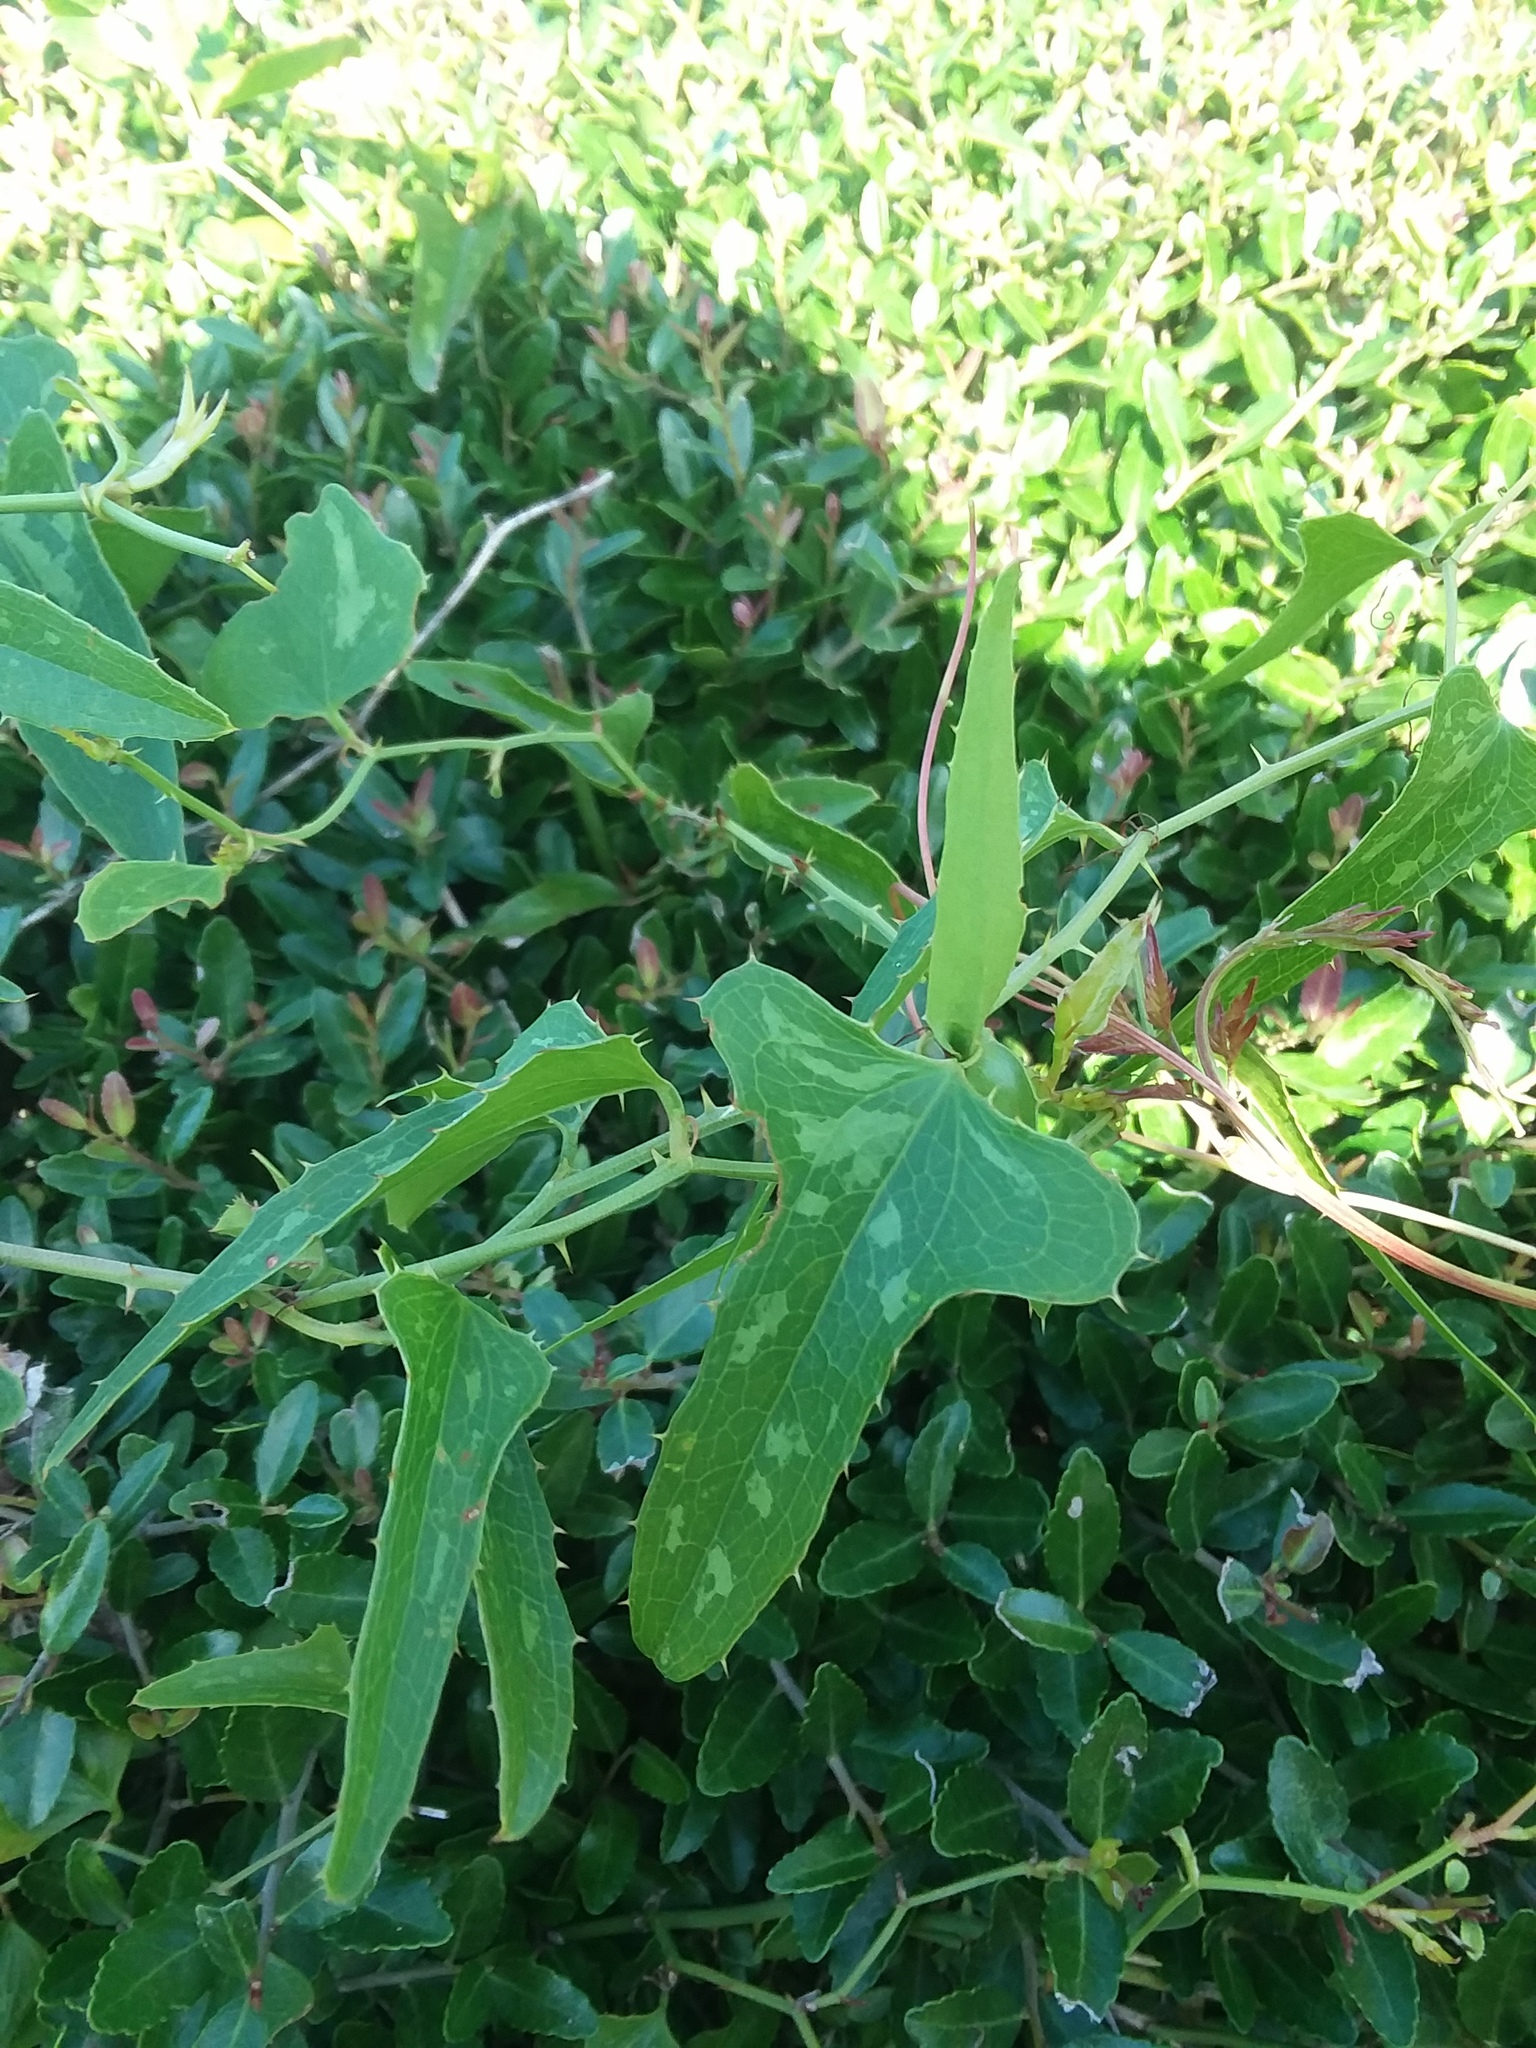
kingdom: Plantae
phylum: Tracheophyta
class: Liliopsida
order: Liliales
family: Smilacaceae
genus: Smilax
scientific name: Smilax bona-nox
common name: Catbrier
